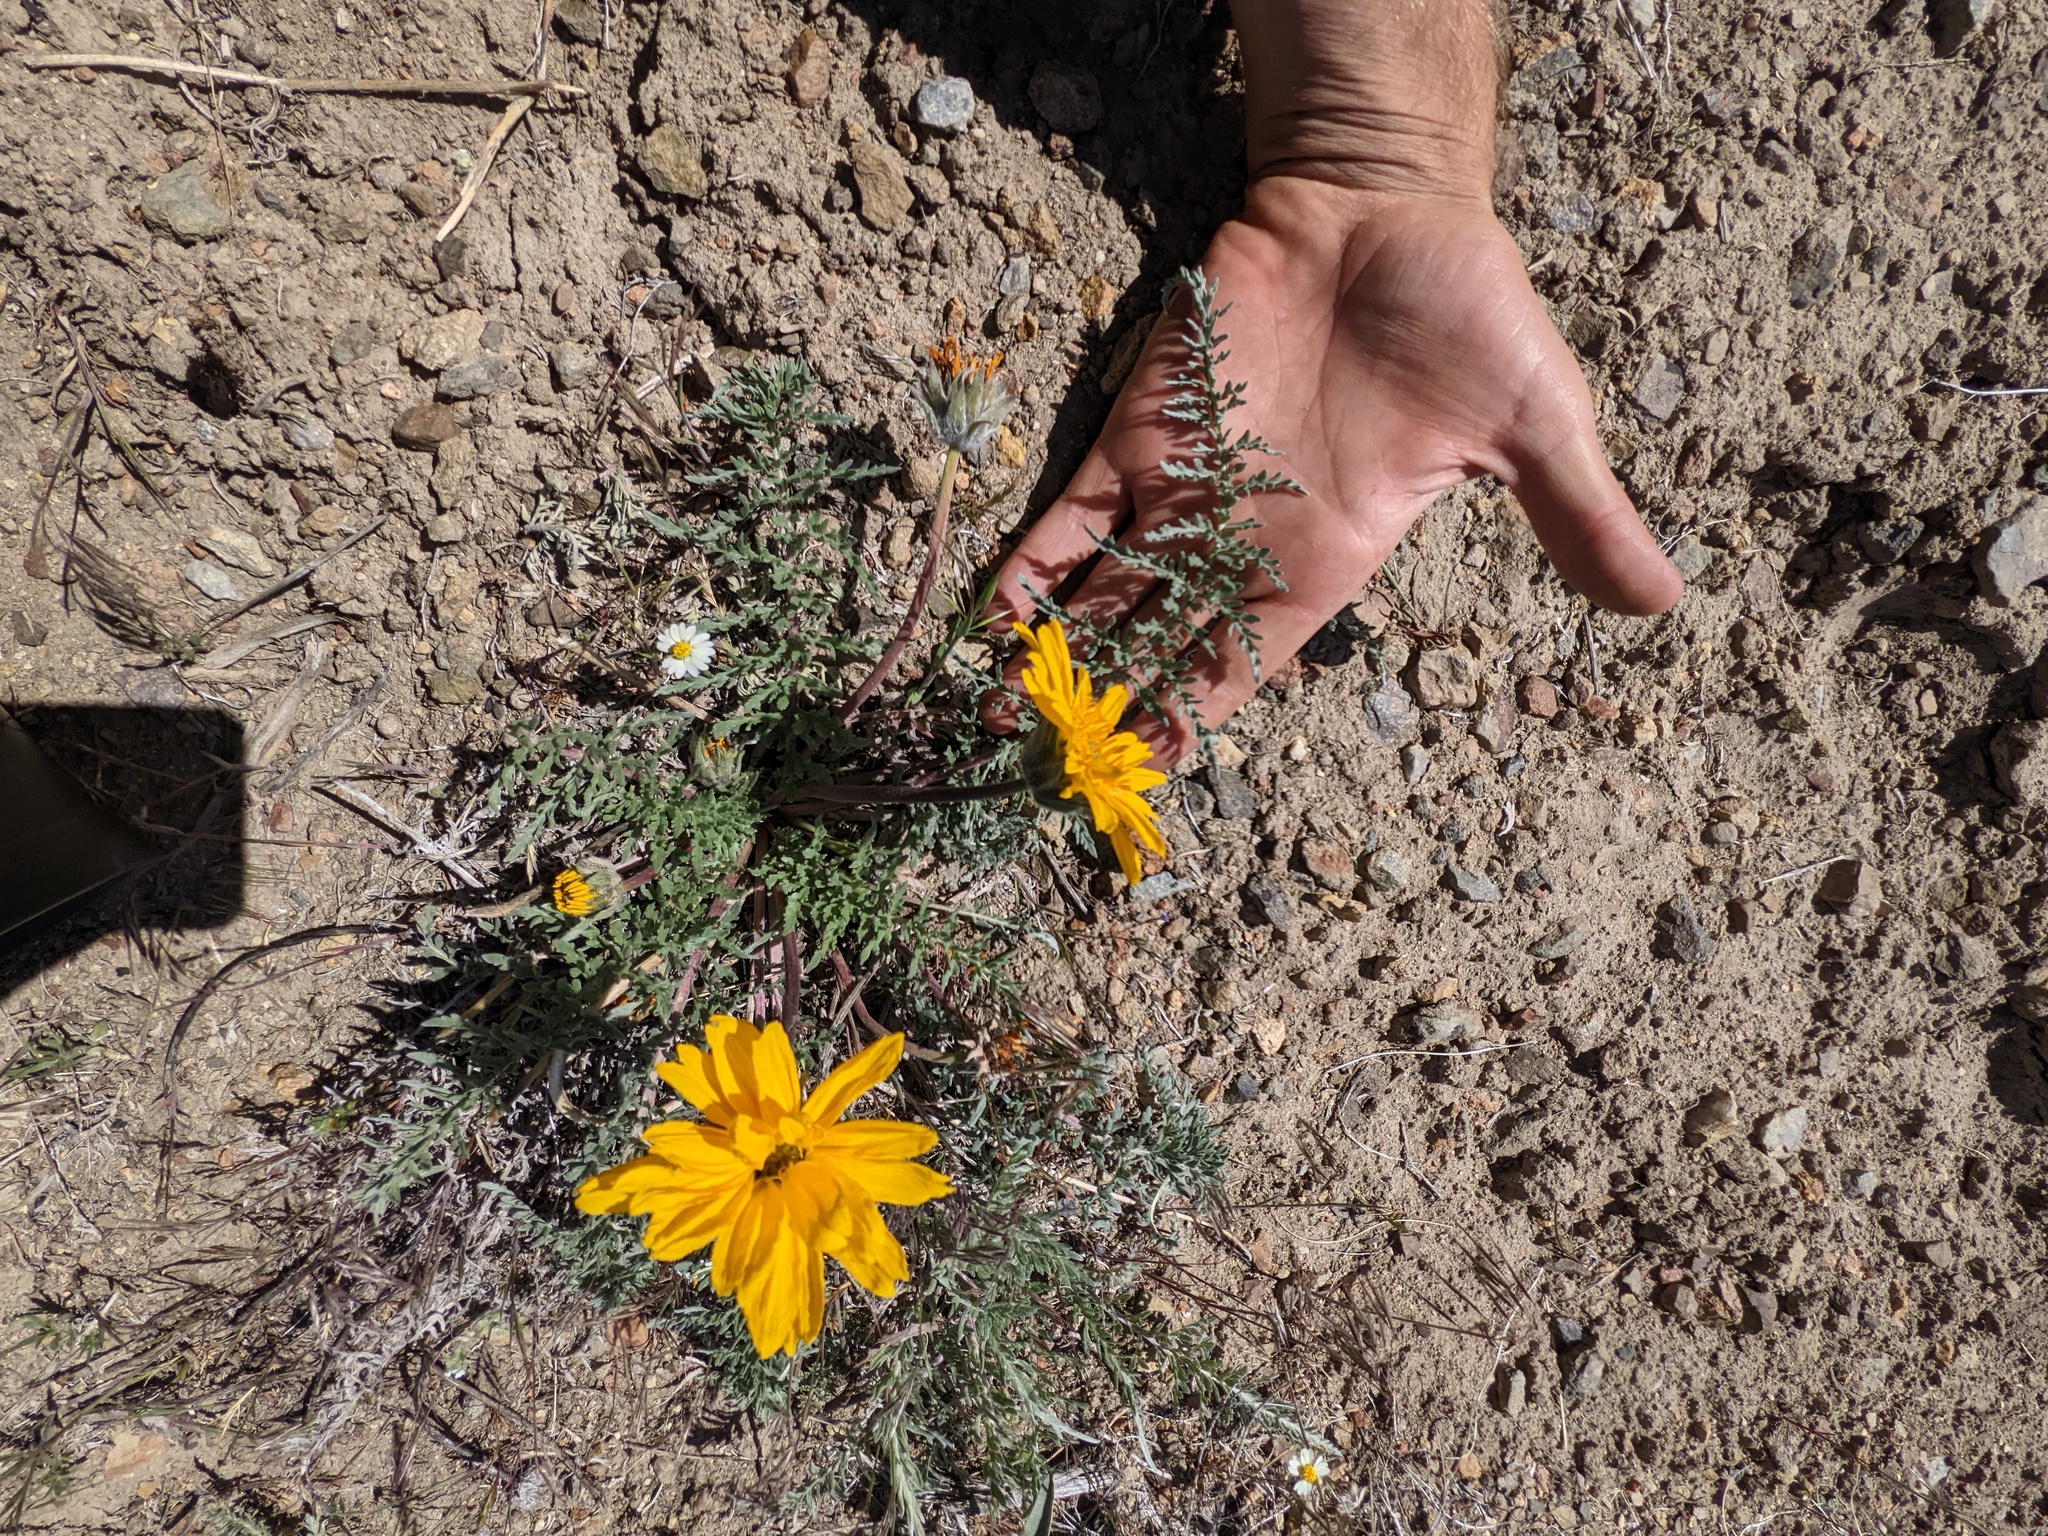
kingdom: Plantae
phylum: Tracheophyta
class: Magnoliopsida
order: Asterales
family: Asteraceae
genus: Balsamorhiza
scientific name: Balsamorhiza hookeri
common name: Hooker's balsamroot
